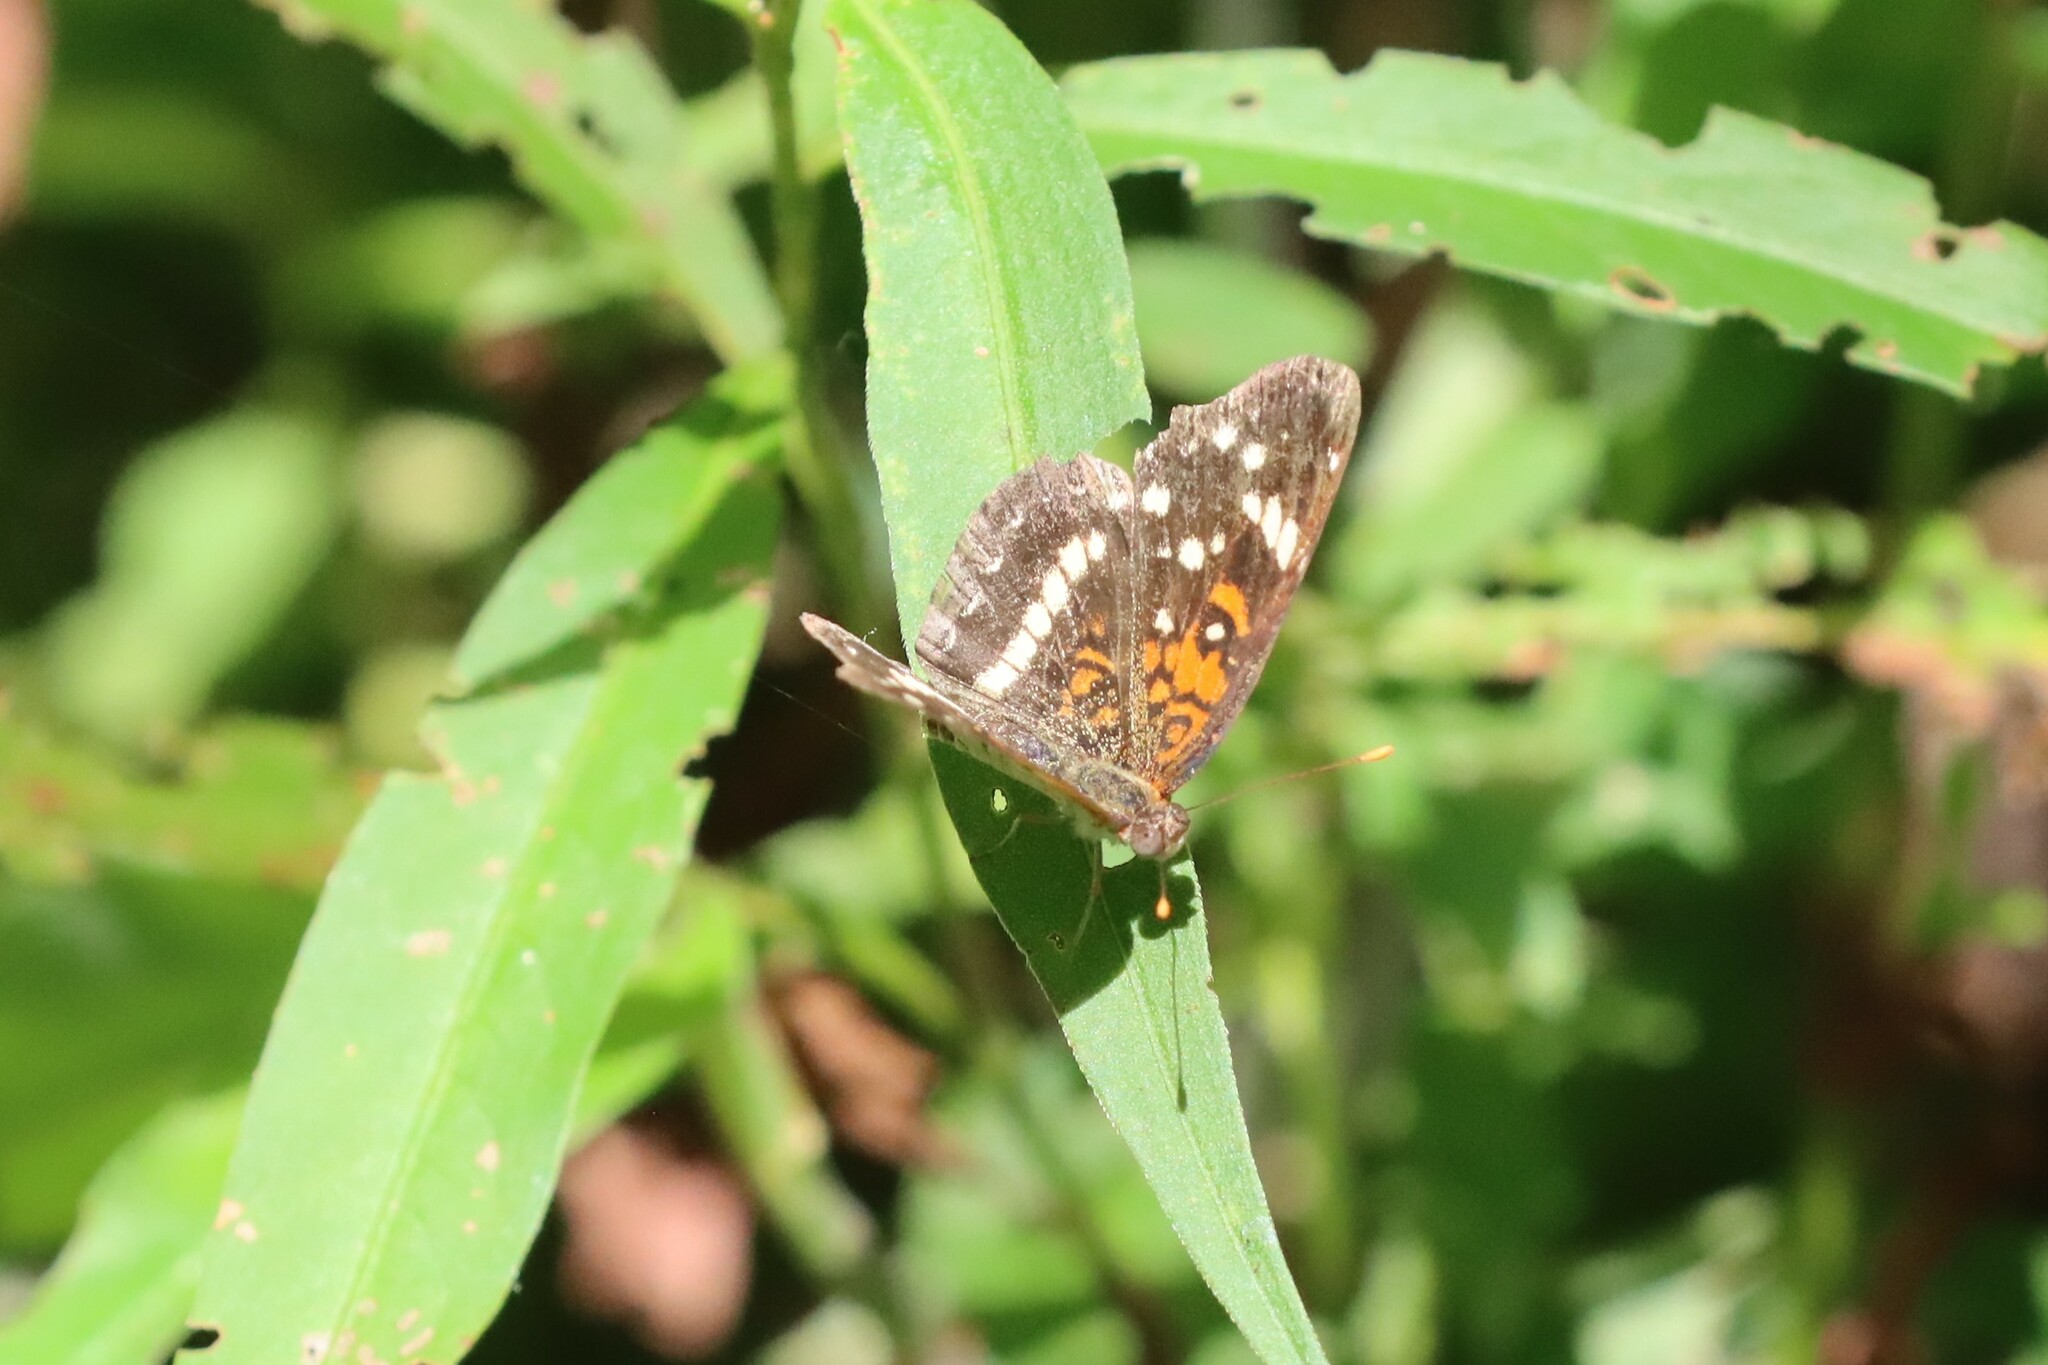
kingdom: Animalia
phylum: Arthropoda
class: Insecta
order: Lepidoptera
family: Nymphalidae
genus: Anthanassa
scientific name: Anthanassa taxana
